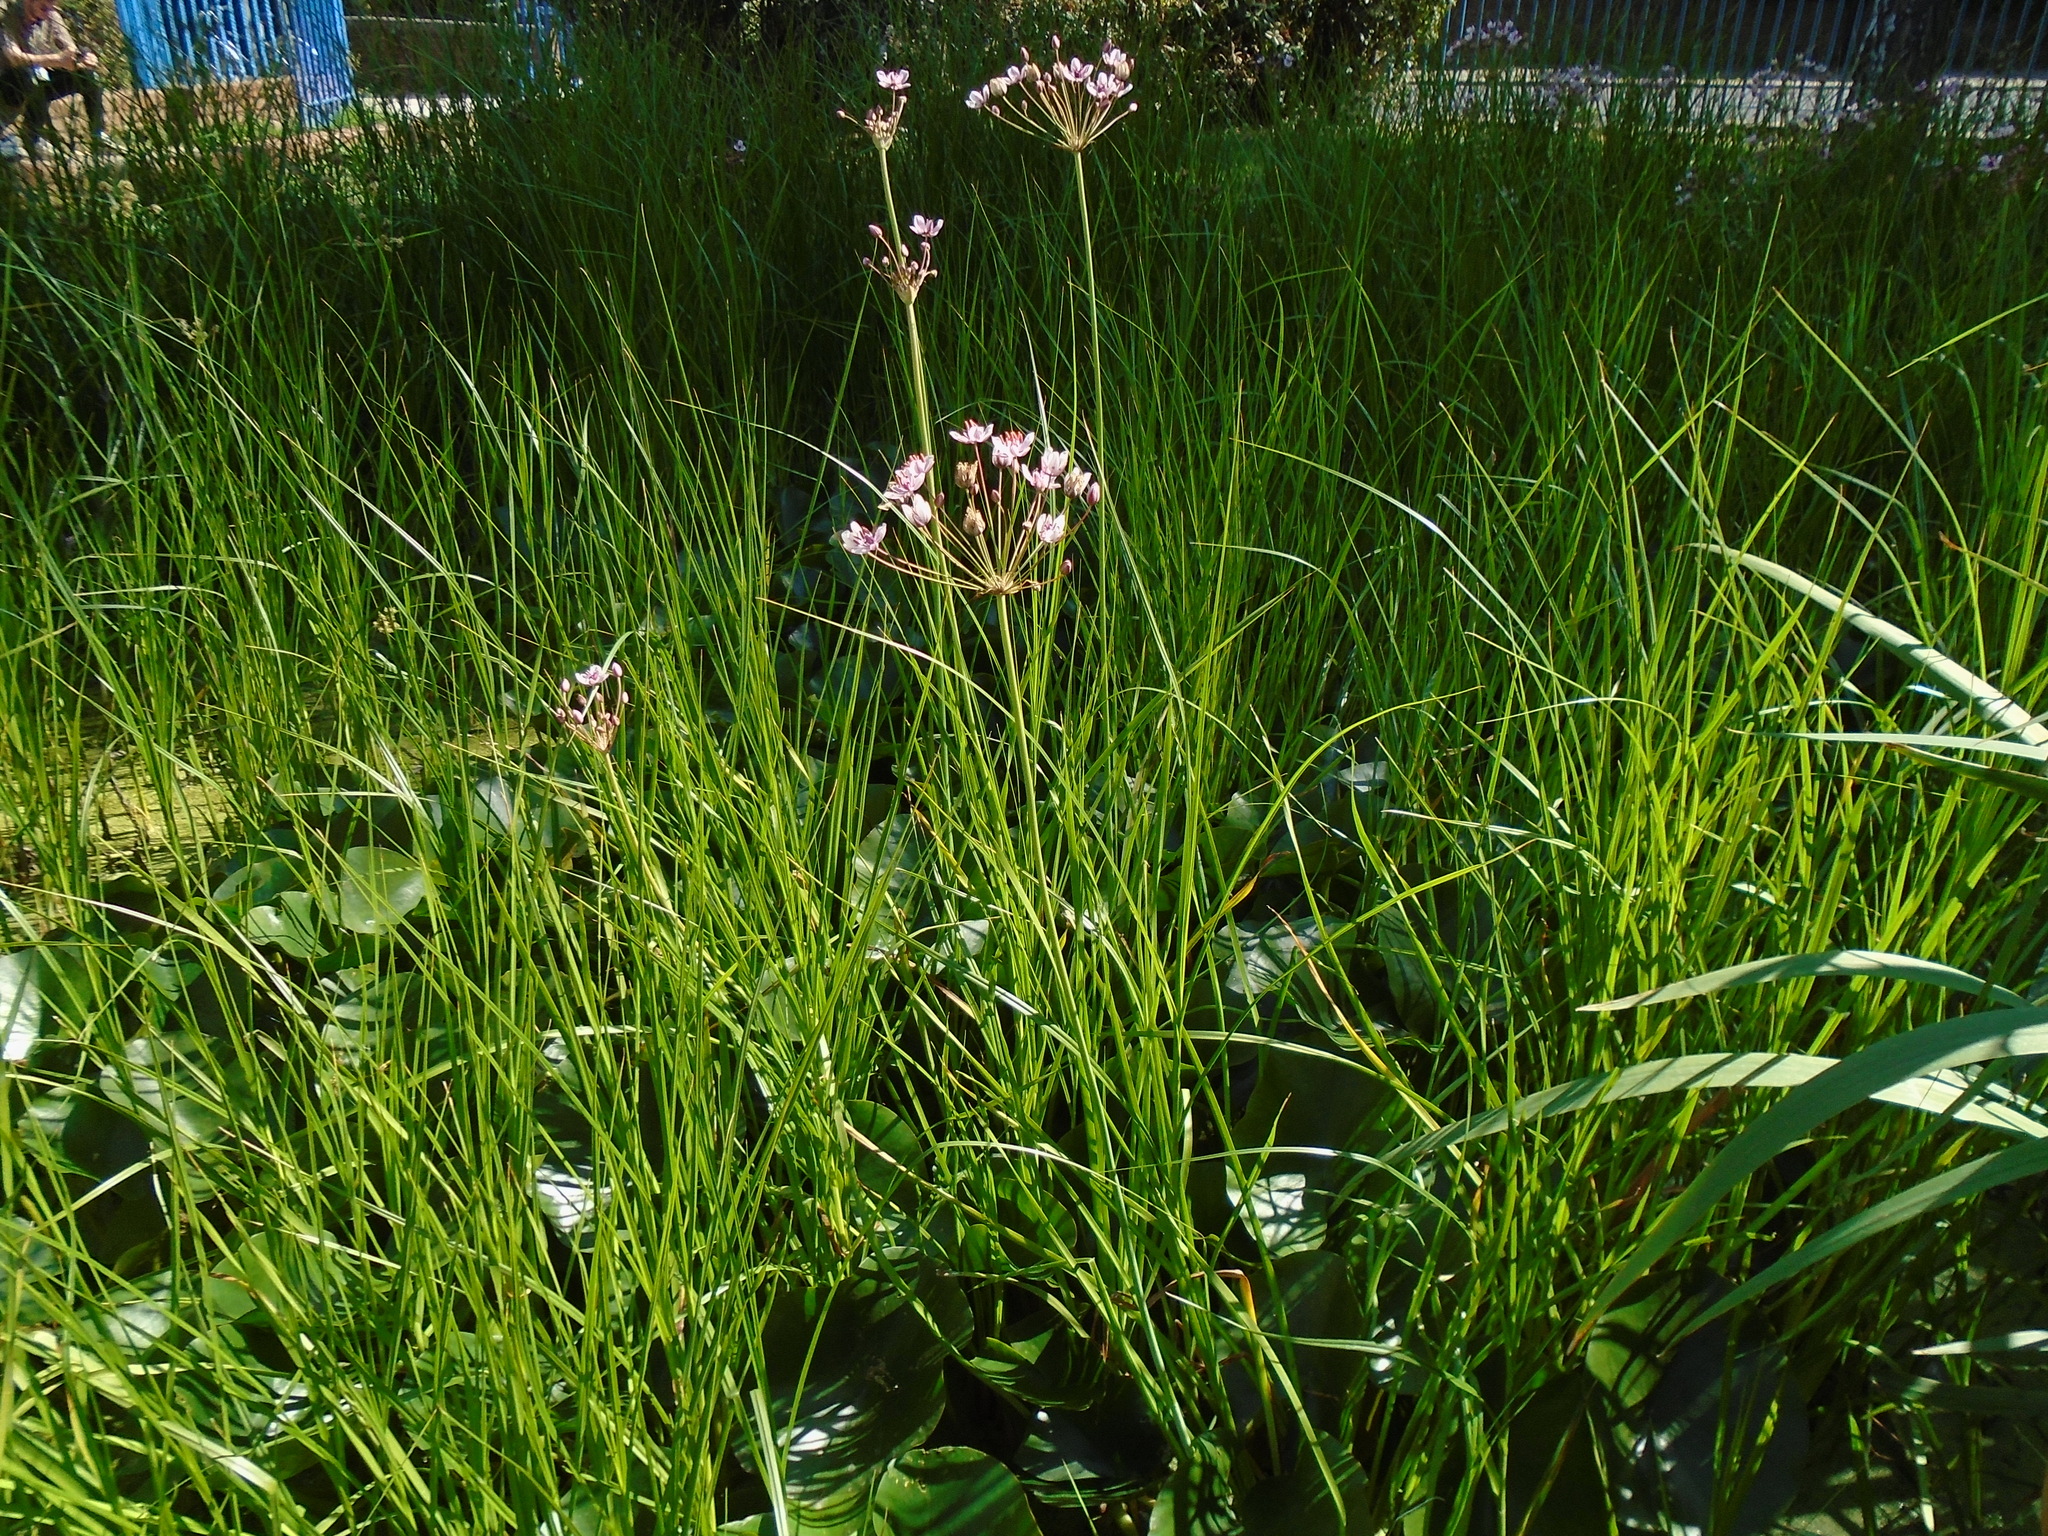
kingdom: Plantae
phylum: Tracheophyta
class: Liliopsida
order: Alismatales
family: Butomaceae
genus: Butomus
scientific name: Butomus umbellatus
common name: Flowering-rush
